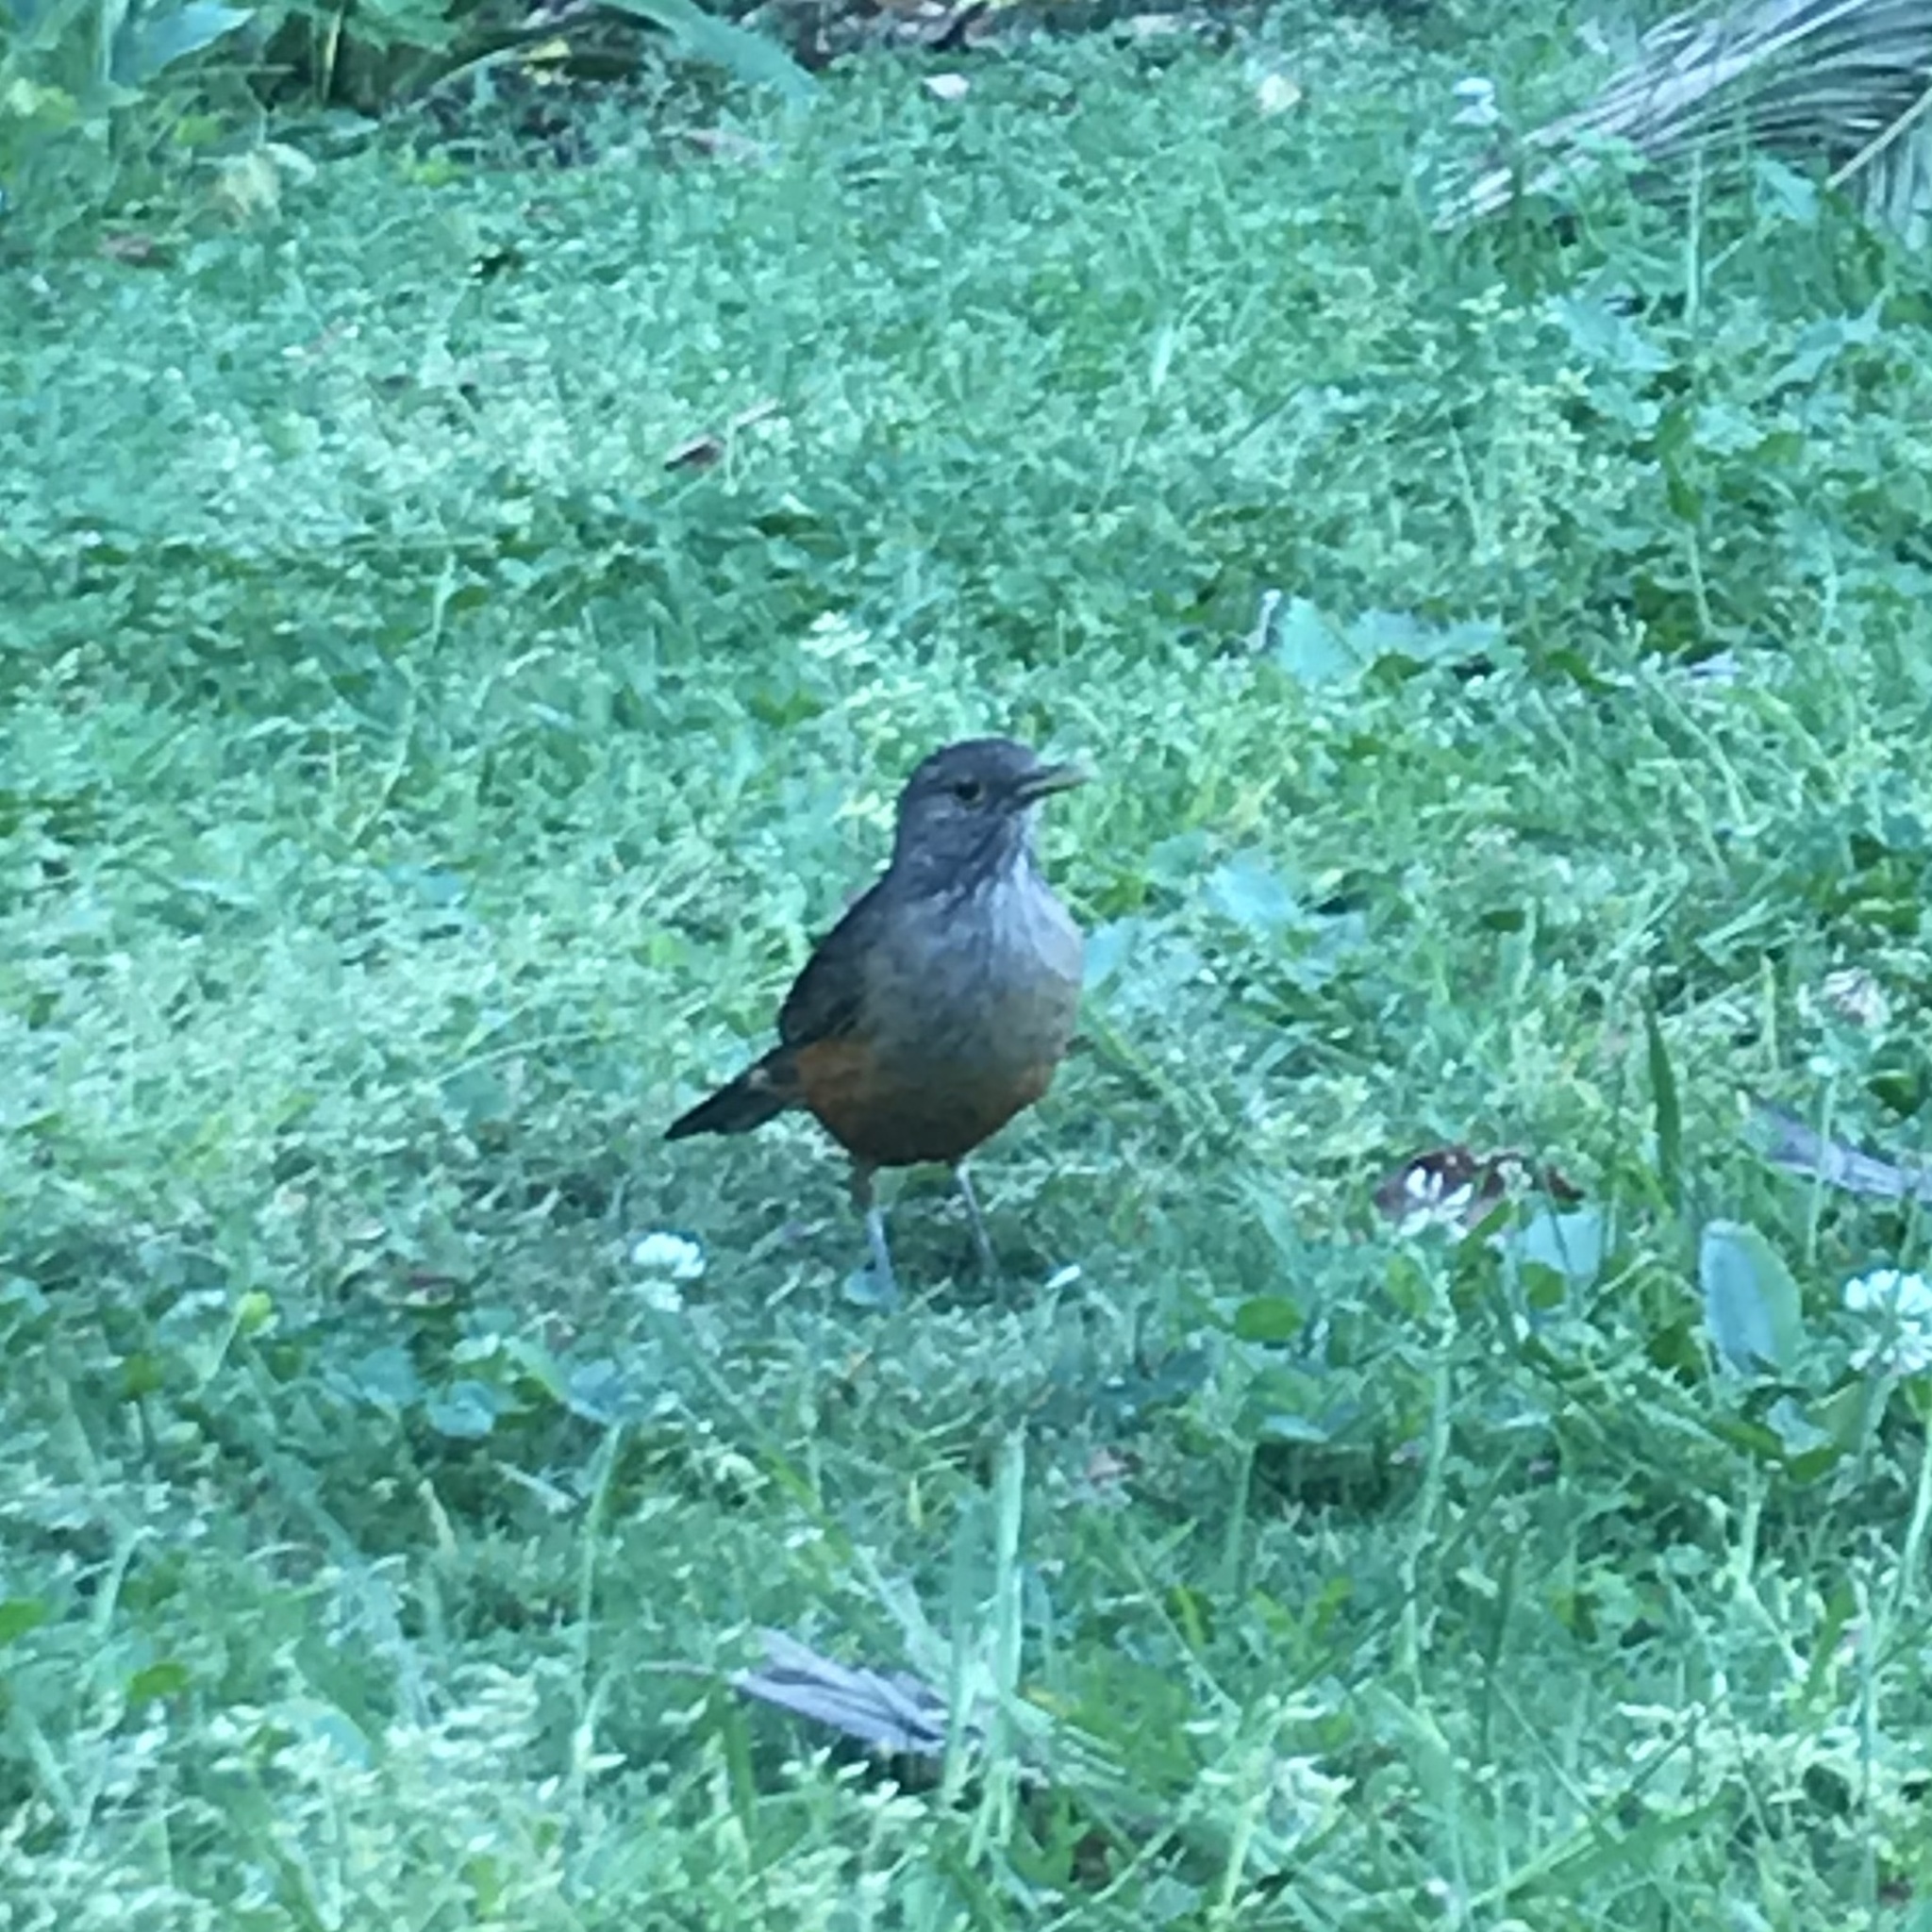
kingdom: Animalia
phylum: Chordata
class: Aves
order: Passeriformes
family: Turdidae
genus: Turdus
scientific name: Turdus rufiventris
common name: Rufous-bellied thrush
